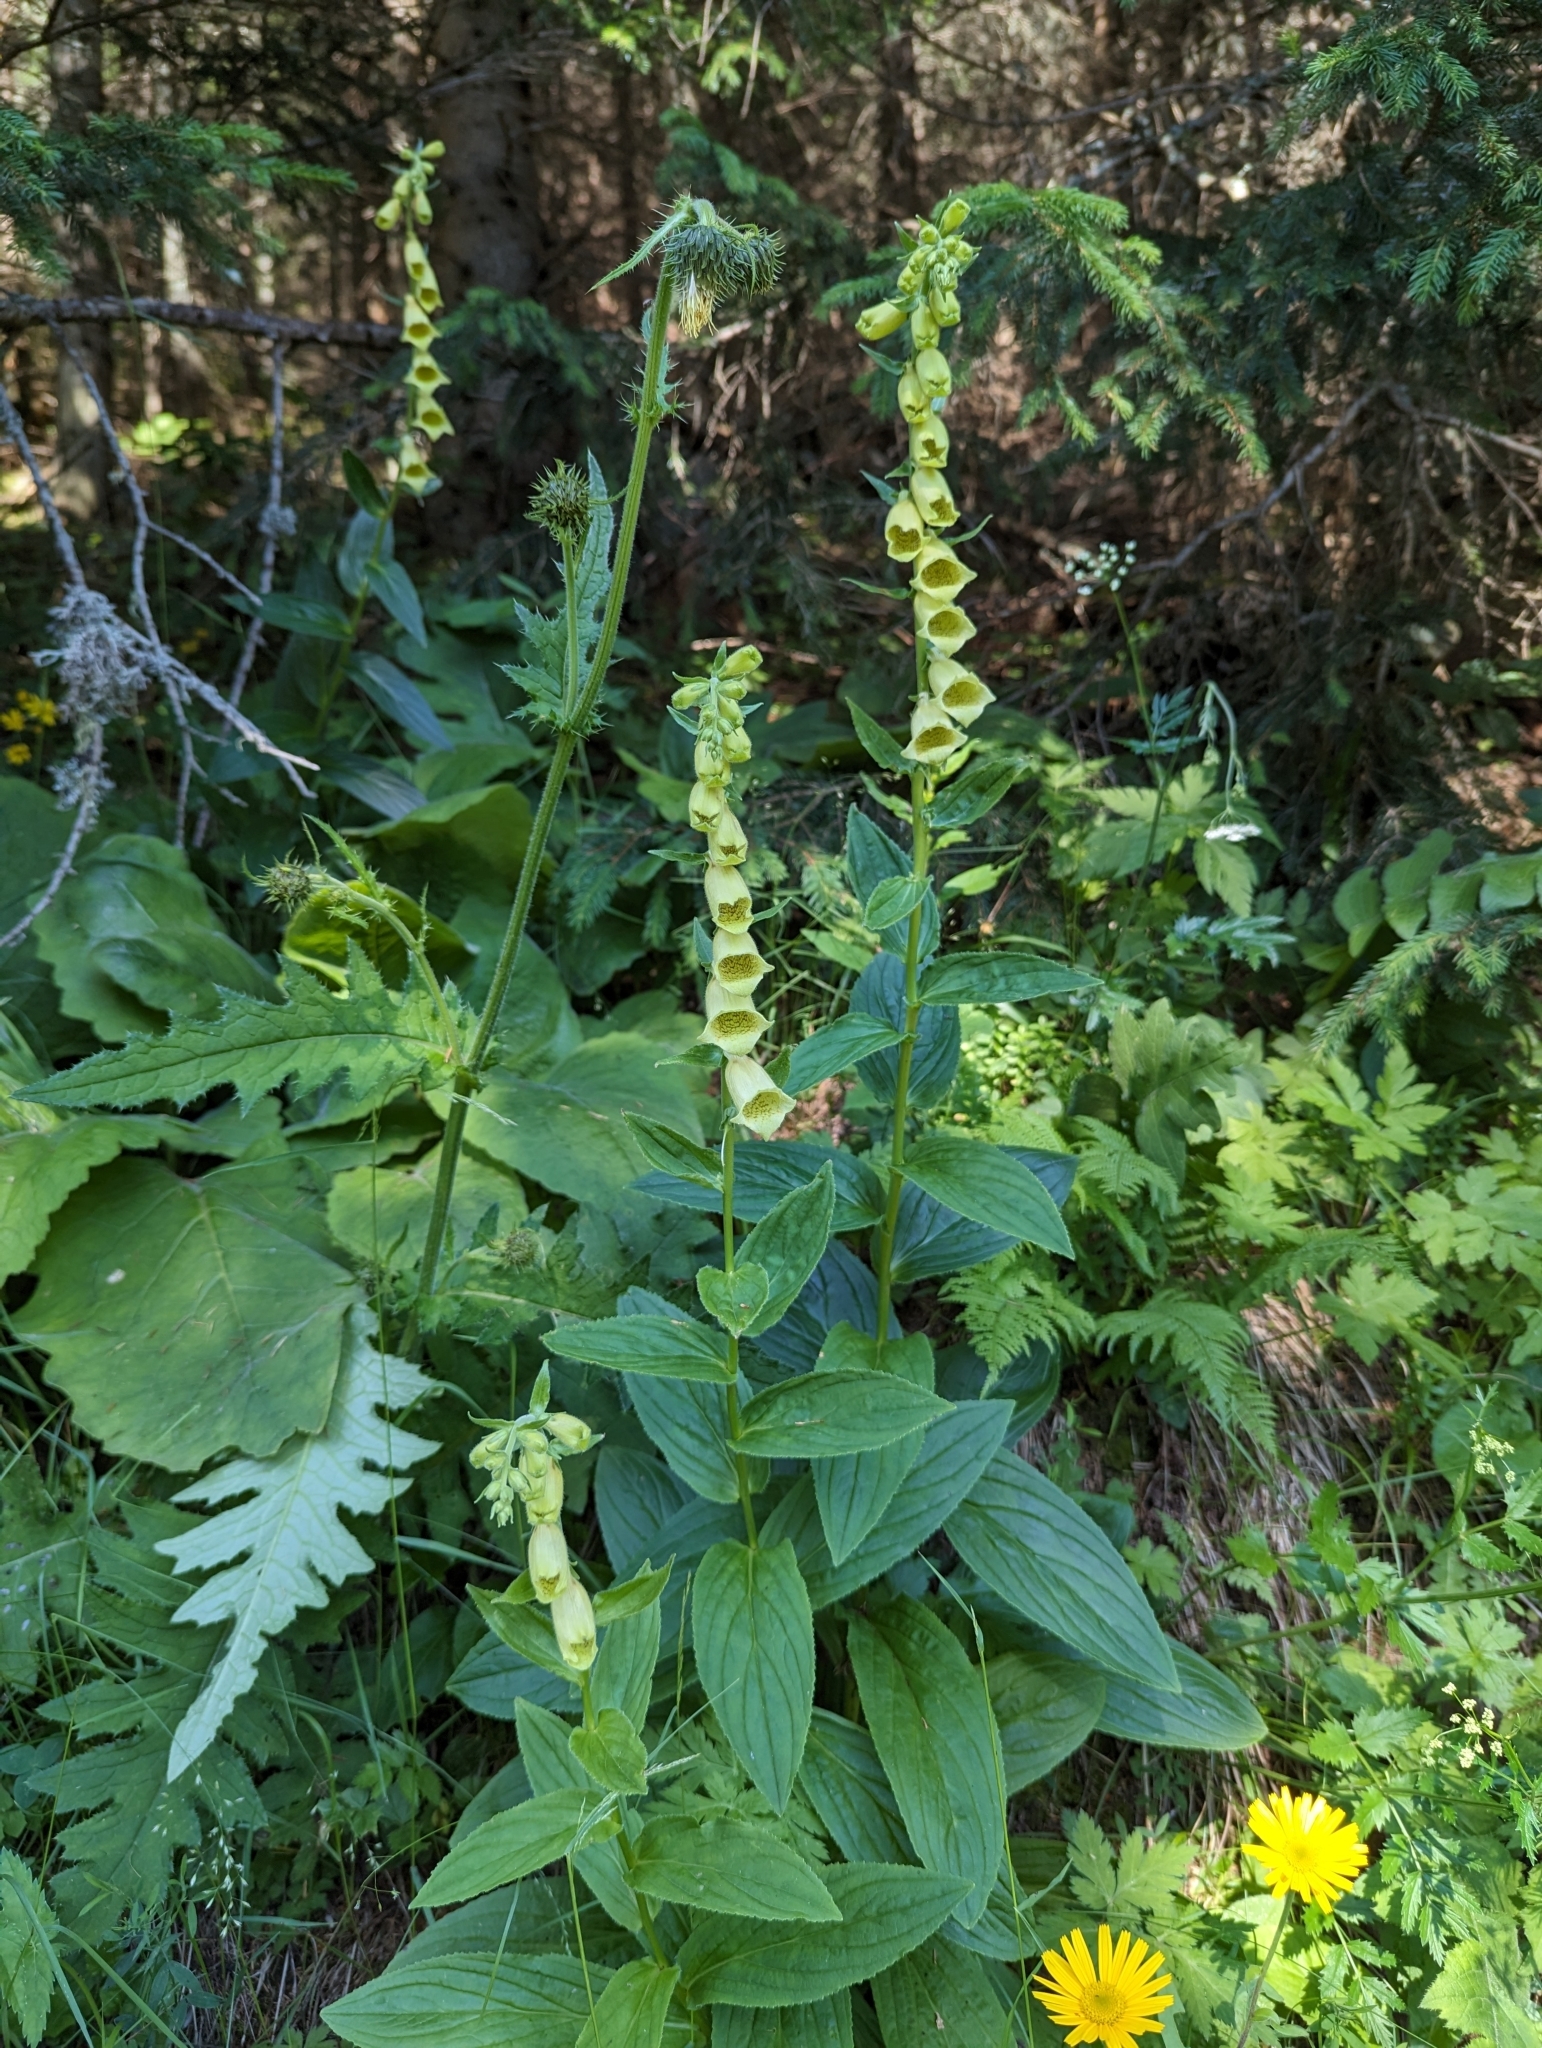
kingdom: Plantae
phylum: Tracheophyta
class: Magnoliopsida
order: Lamiales
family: Plantaginaceae
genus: Digitalis
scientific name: Digitalis grandiflora
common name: Yellow foxglove
